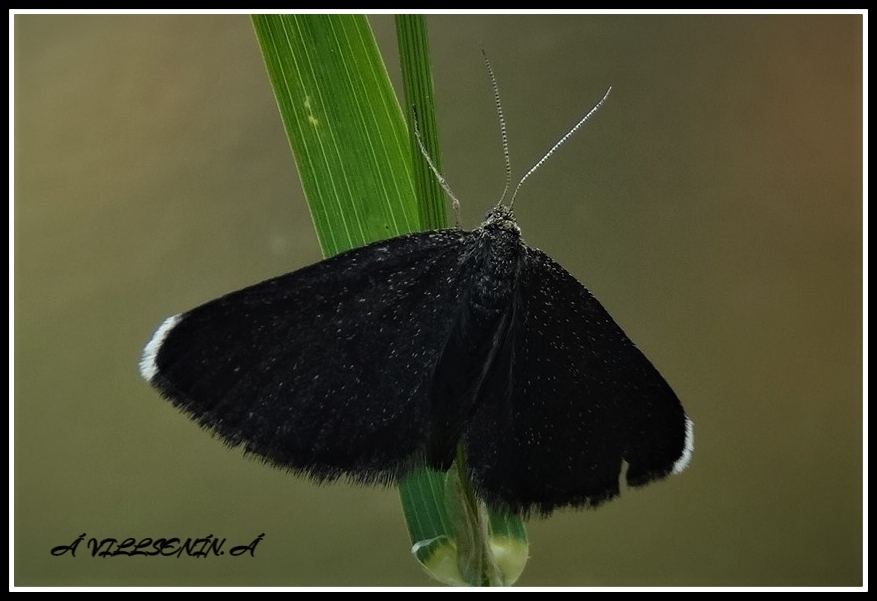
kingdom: Animalia
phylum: Arthropoda
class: Insecta
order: Lepidoptera
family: Geometridae
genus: Odezia
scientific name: Odezia atrata
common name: Chimney sweeper
